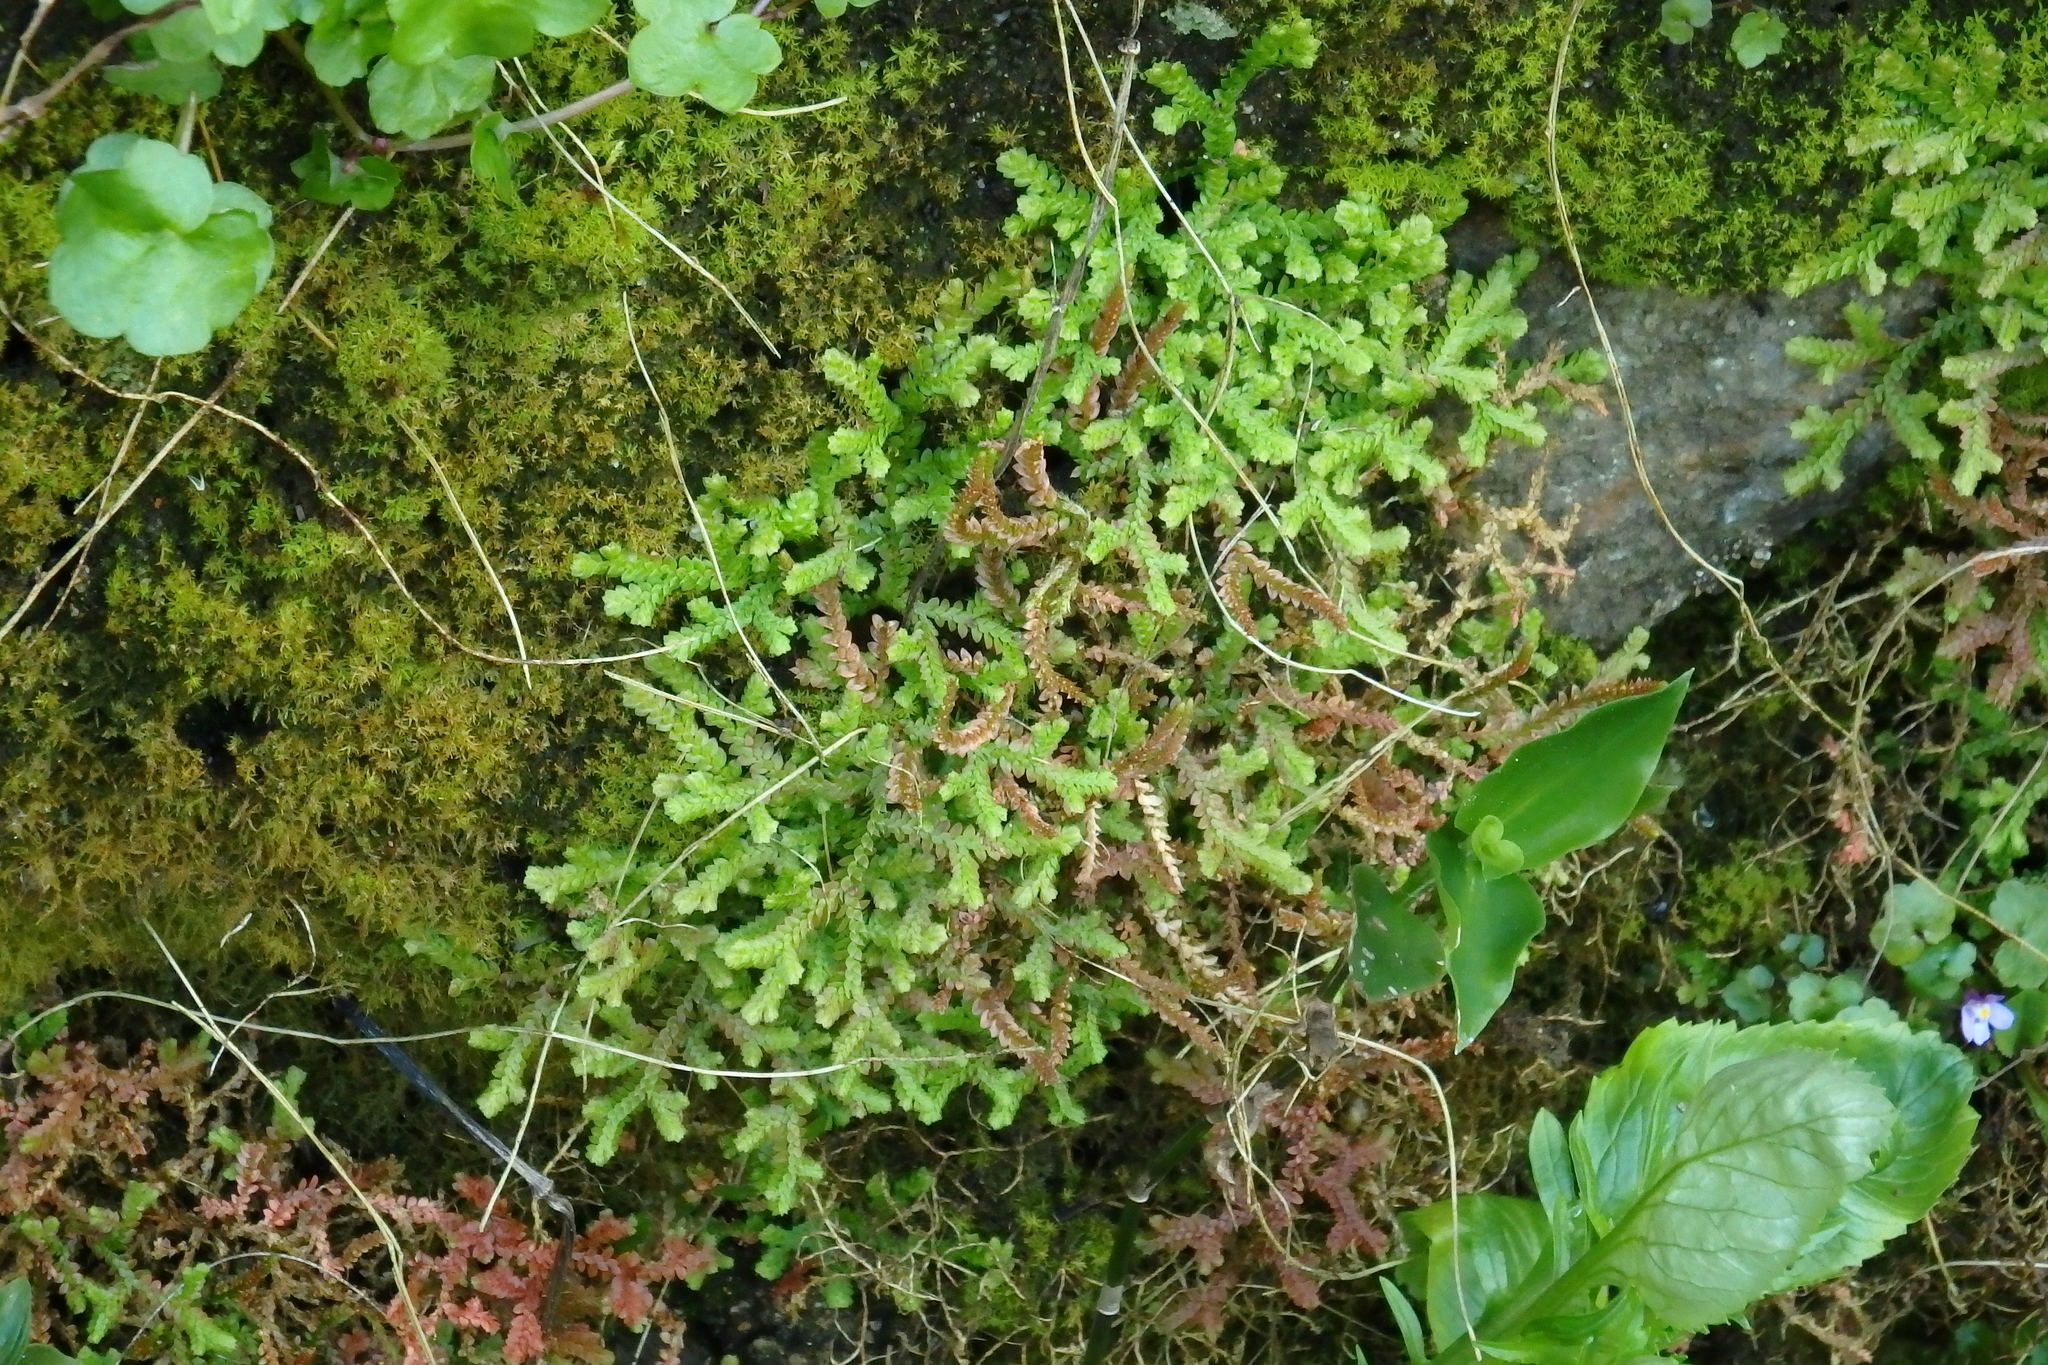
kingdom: Plantae
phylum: Tracheophyta
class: Lycopodiopsida
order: Selaginellales
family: Selaginellaceae
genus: Selaginella
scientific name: Selaginella denticulata
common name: Toothed-leaved clubmoss
